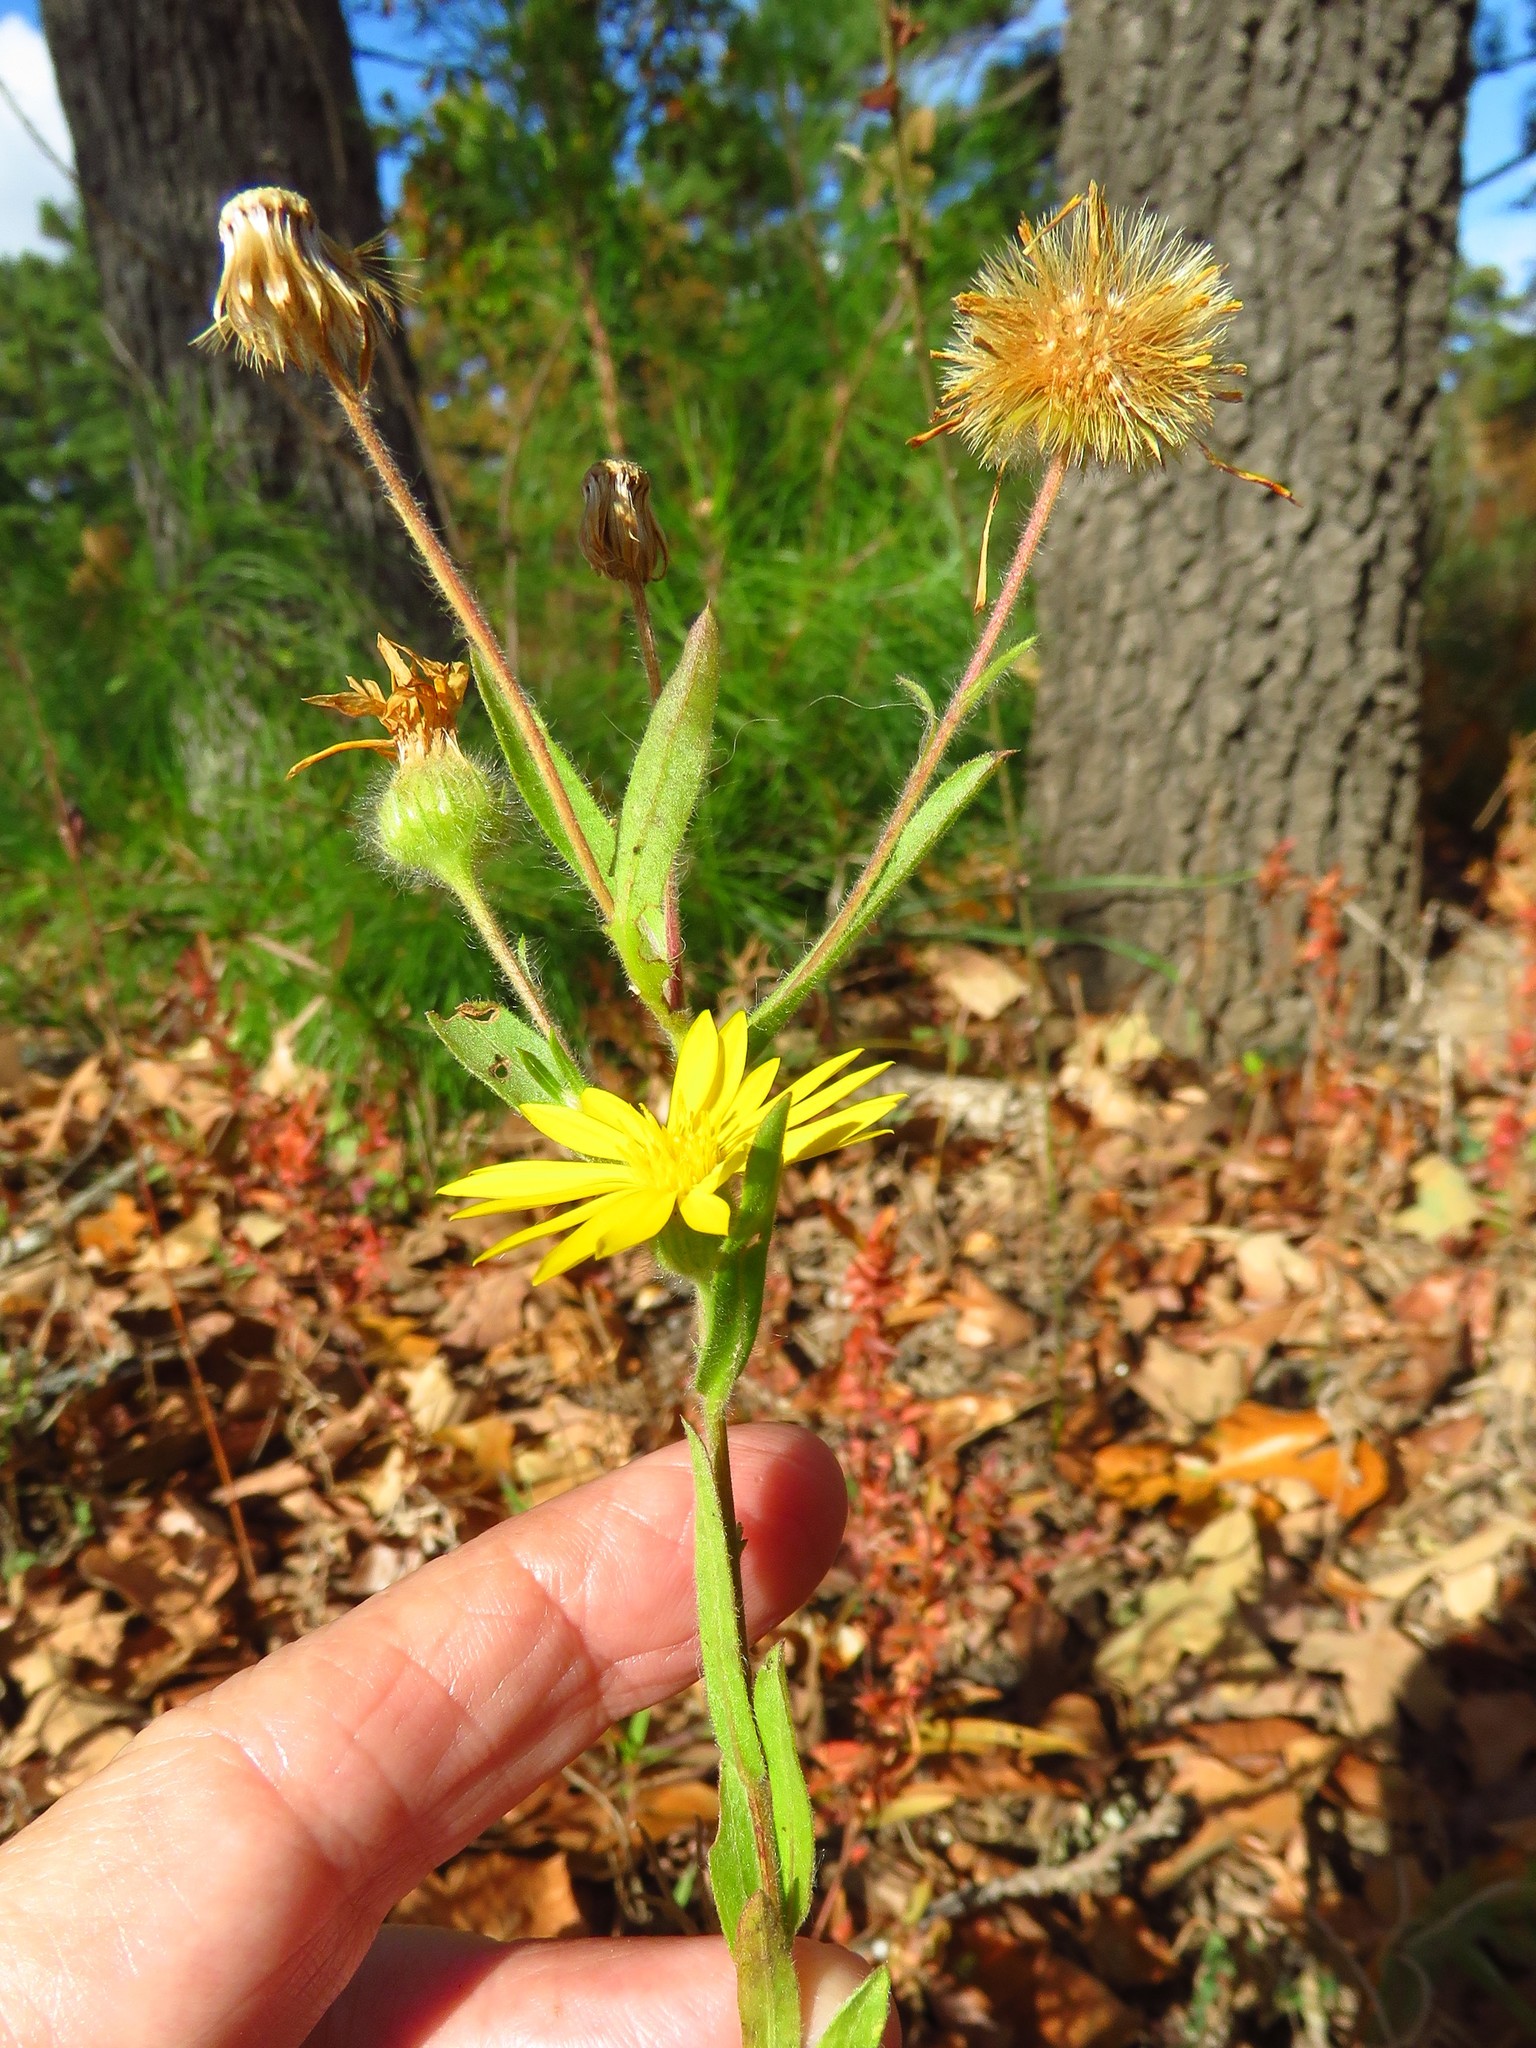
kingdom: Plantae
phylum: Tracheophyta
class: Magnoliopsida
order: Asterales
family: Asteraceae
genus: Bradburia
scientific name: Bradburia pilosa
